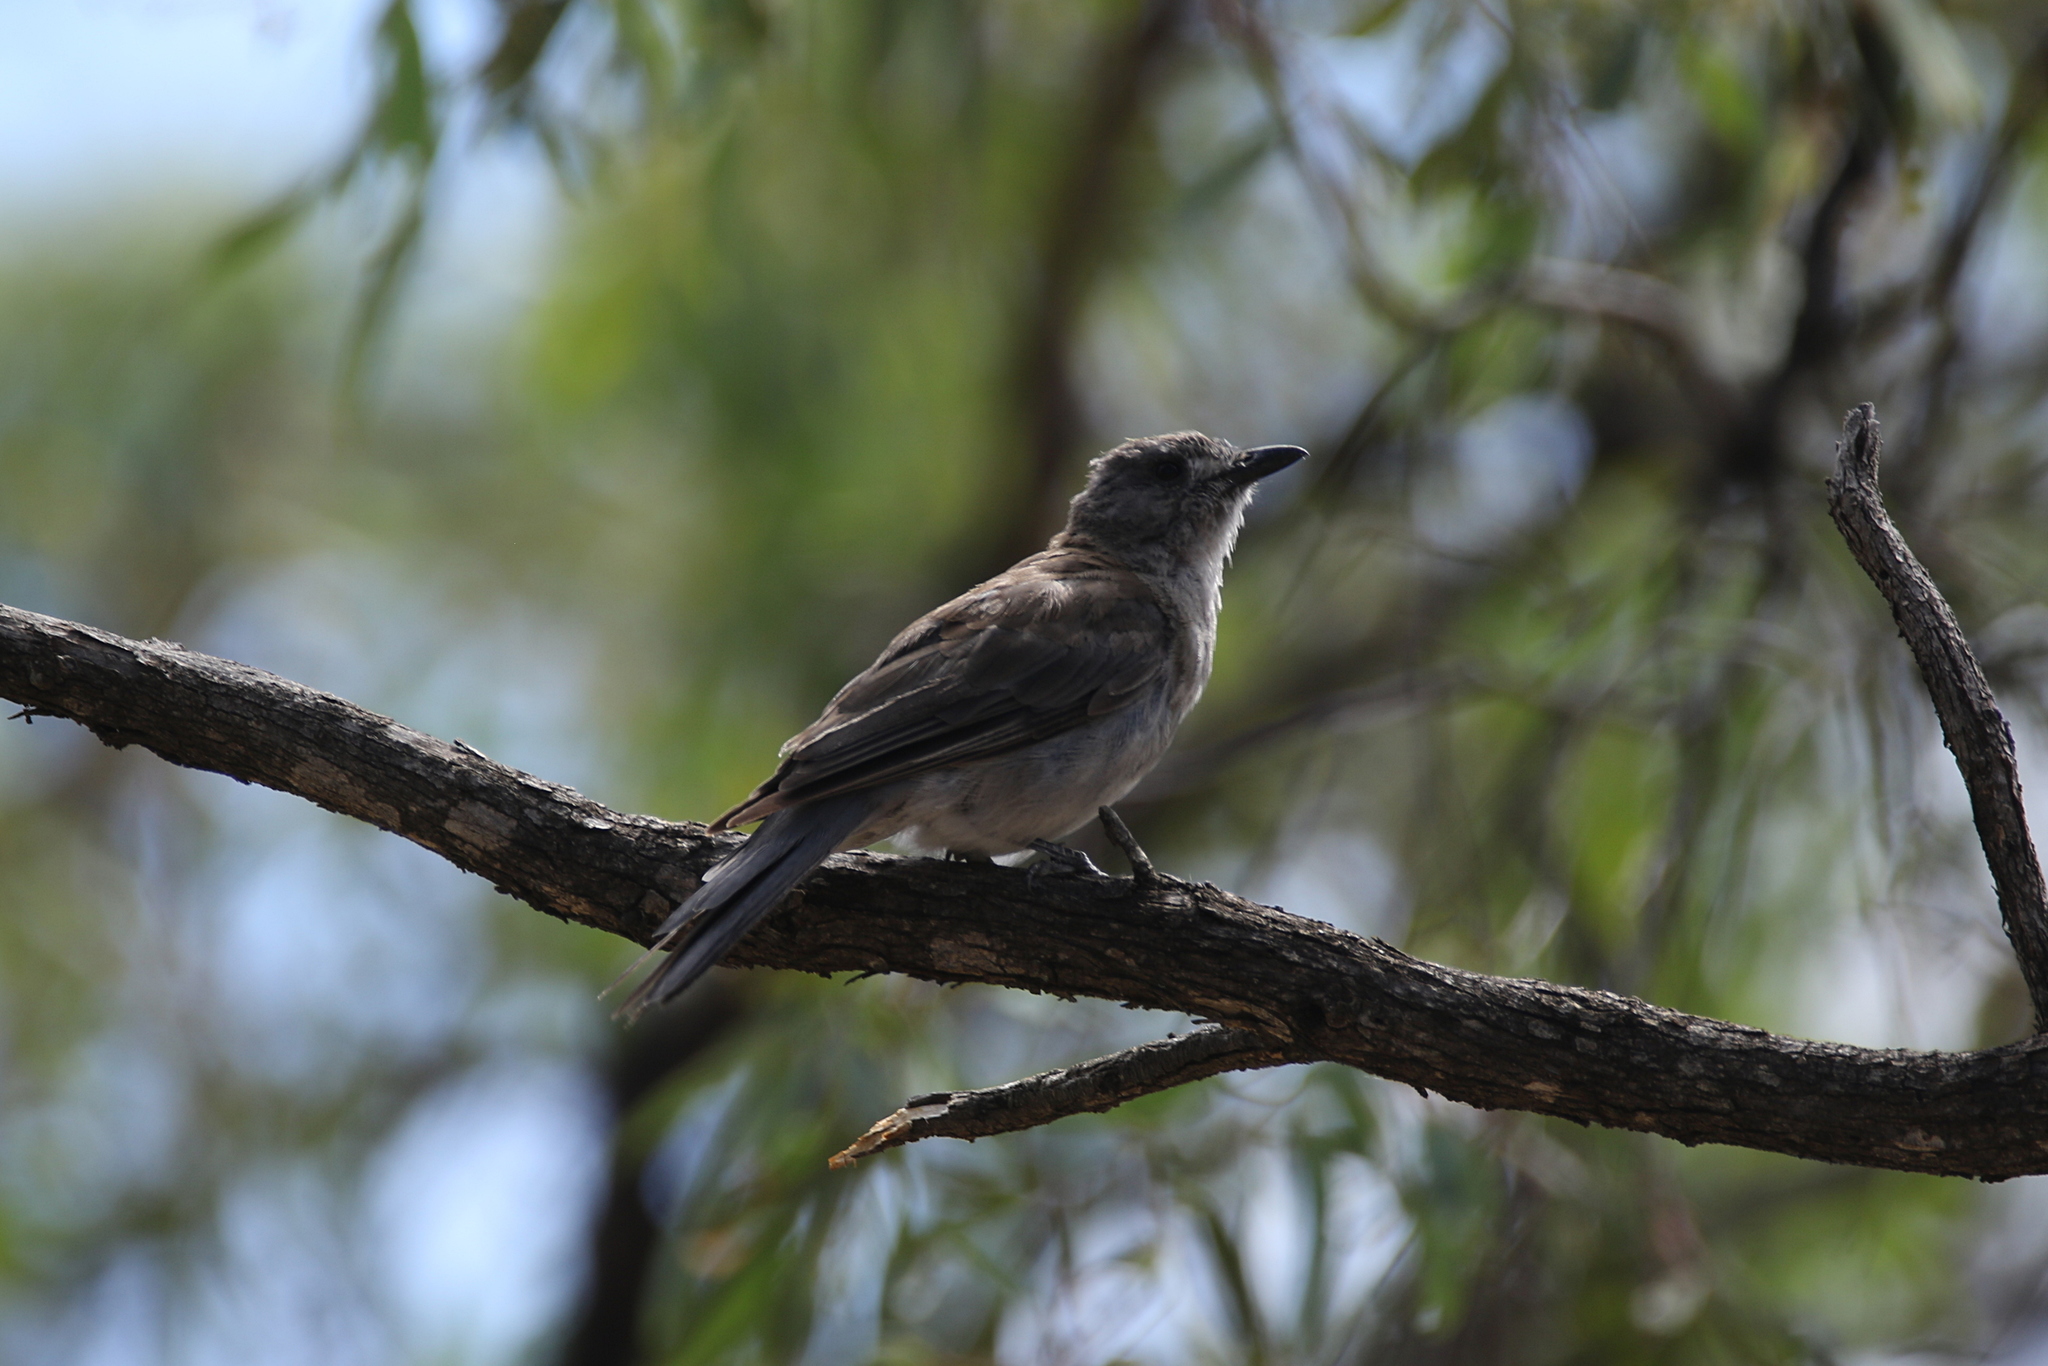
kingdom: Animalia
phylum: Chordata
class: Aves
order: Passeriformes
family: Pachycephalidae
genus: Colluricincla
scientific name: Colluricincla harmonica
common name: Grey shrikethrush
